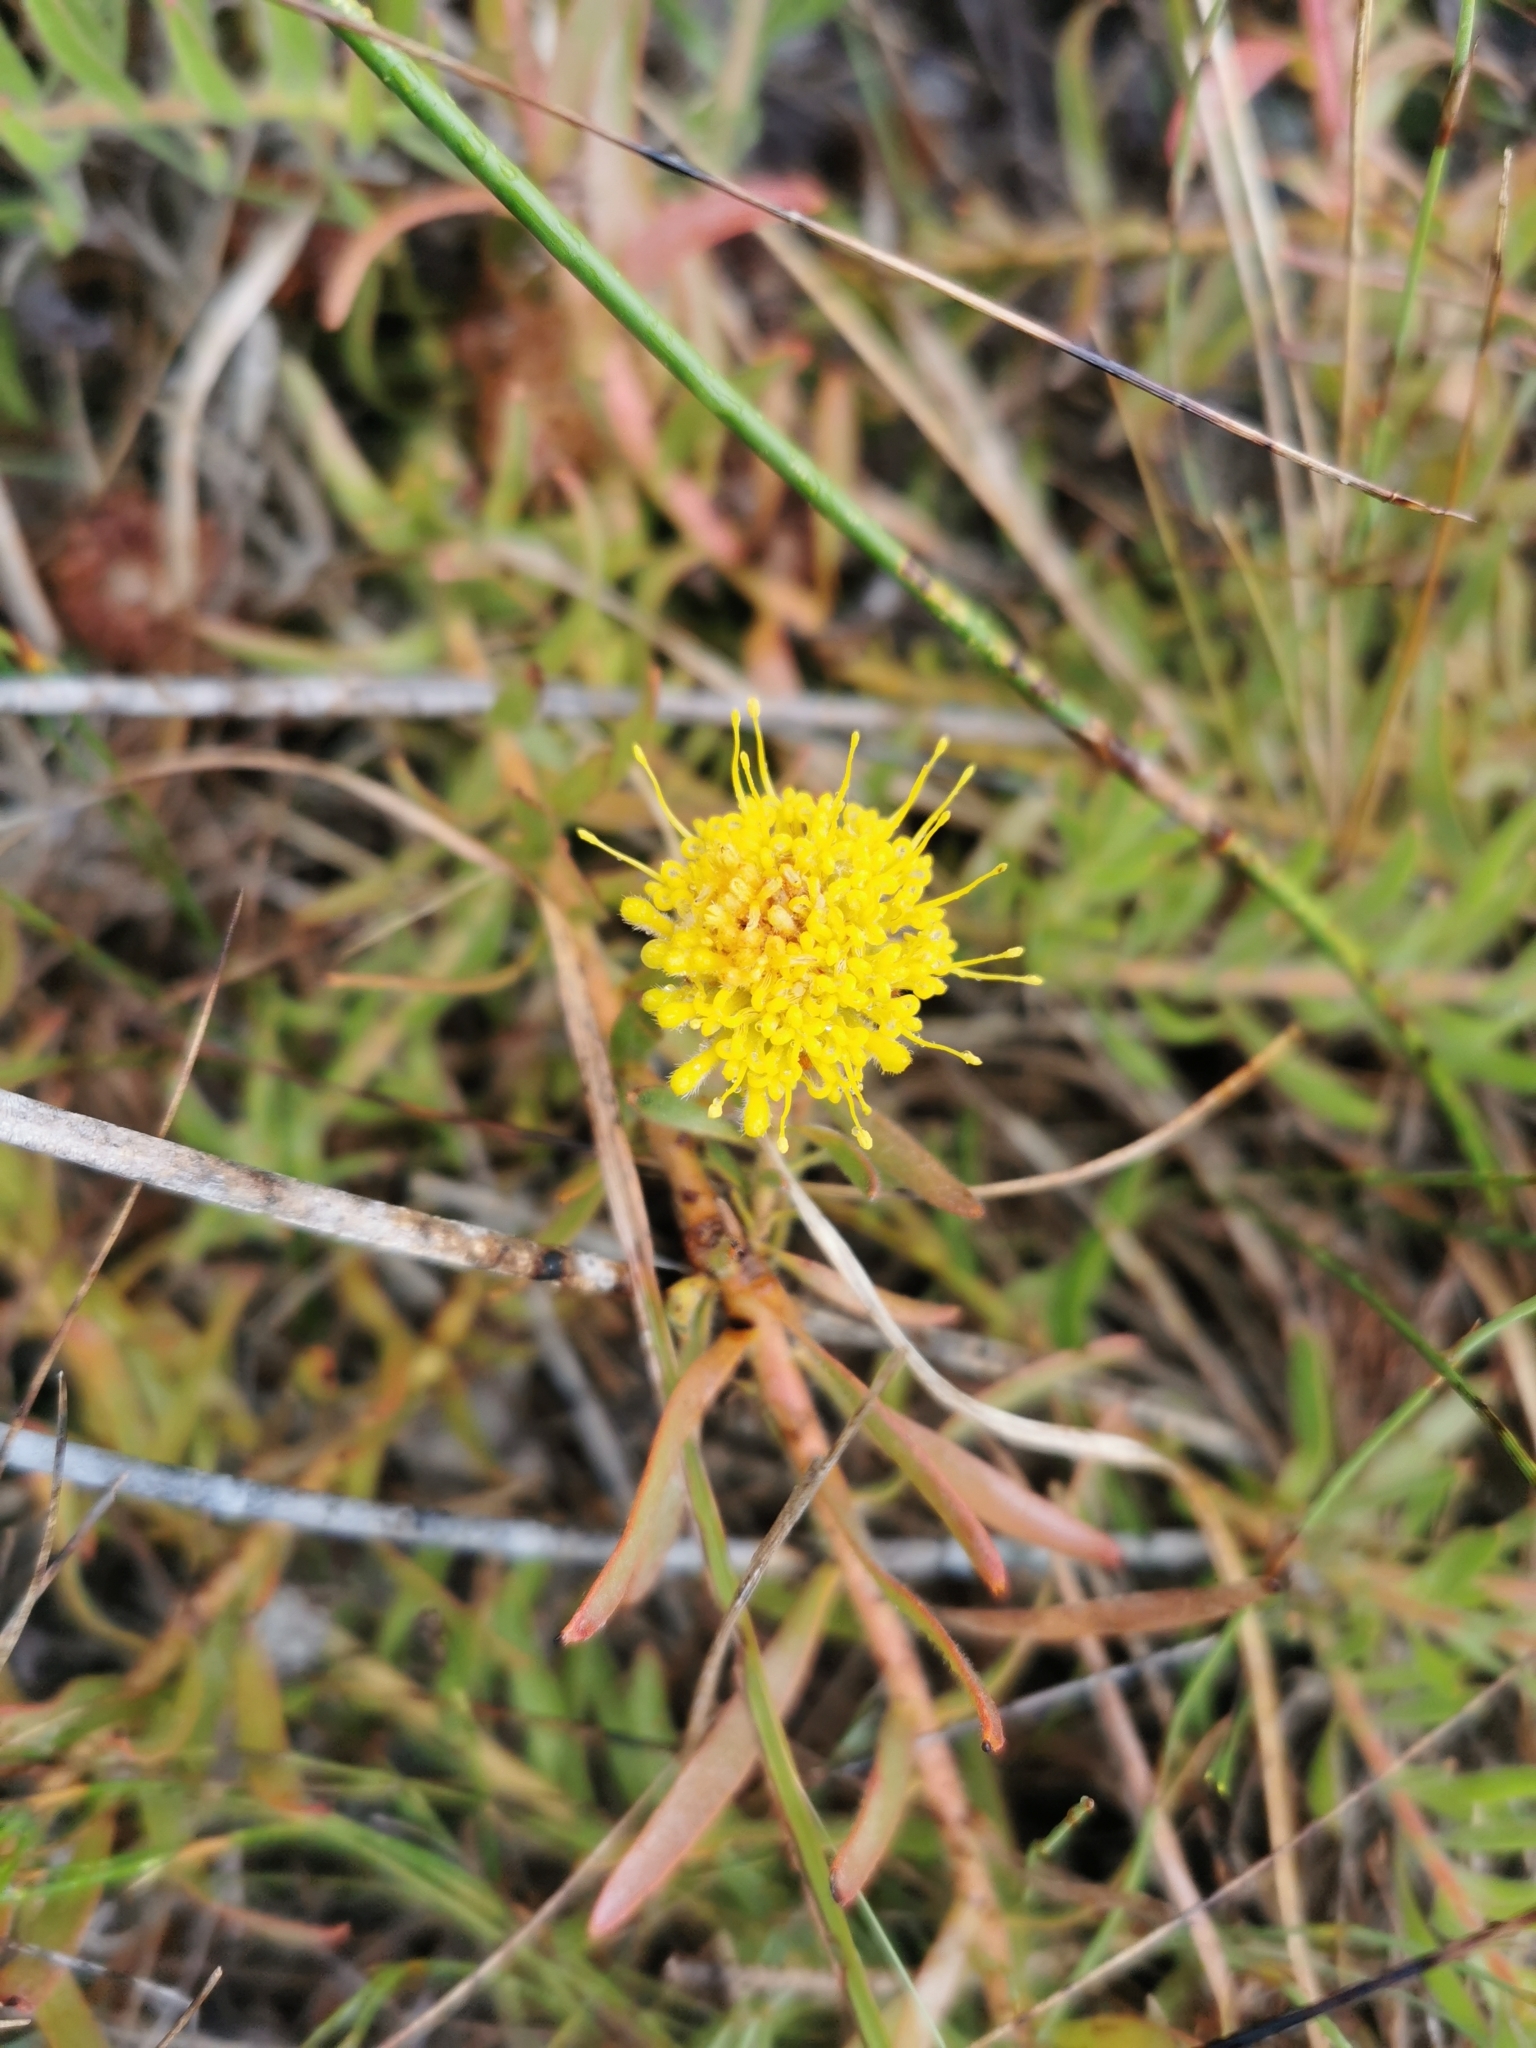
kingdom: Plantae
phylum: Tracheophyta
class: Magnoliopsida
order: Proteales
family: Proteaceae
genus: Leucospermum
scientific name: Leucospermum prostratum
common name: Yellow-trailing pincushion
